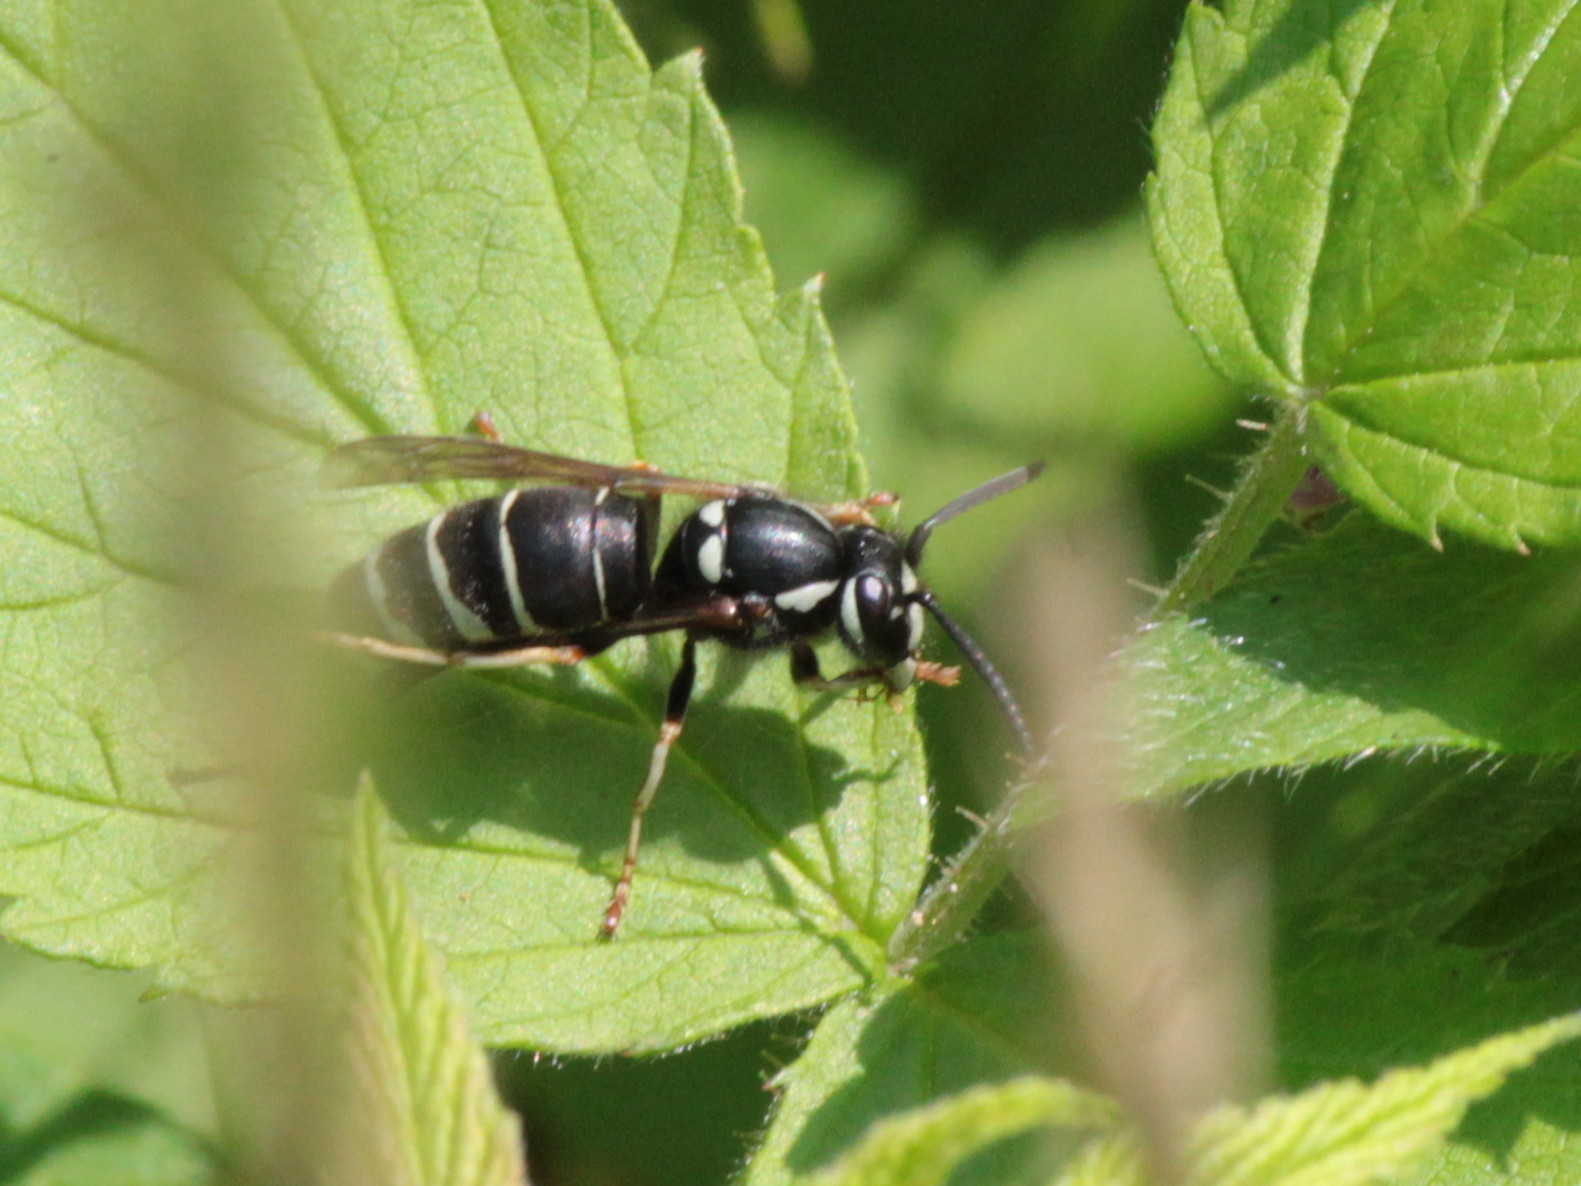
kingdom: Animalia
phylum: Arthropoda
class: Insecta
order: Hymenoptera
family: Vespidae
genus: Vespula
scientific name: Vespula consobrina
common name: Blackjacket
